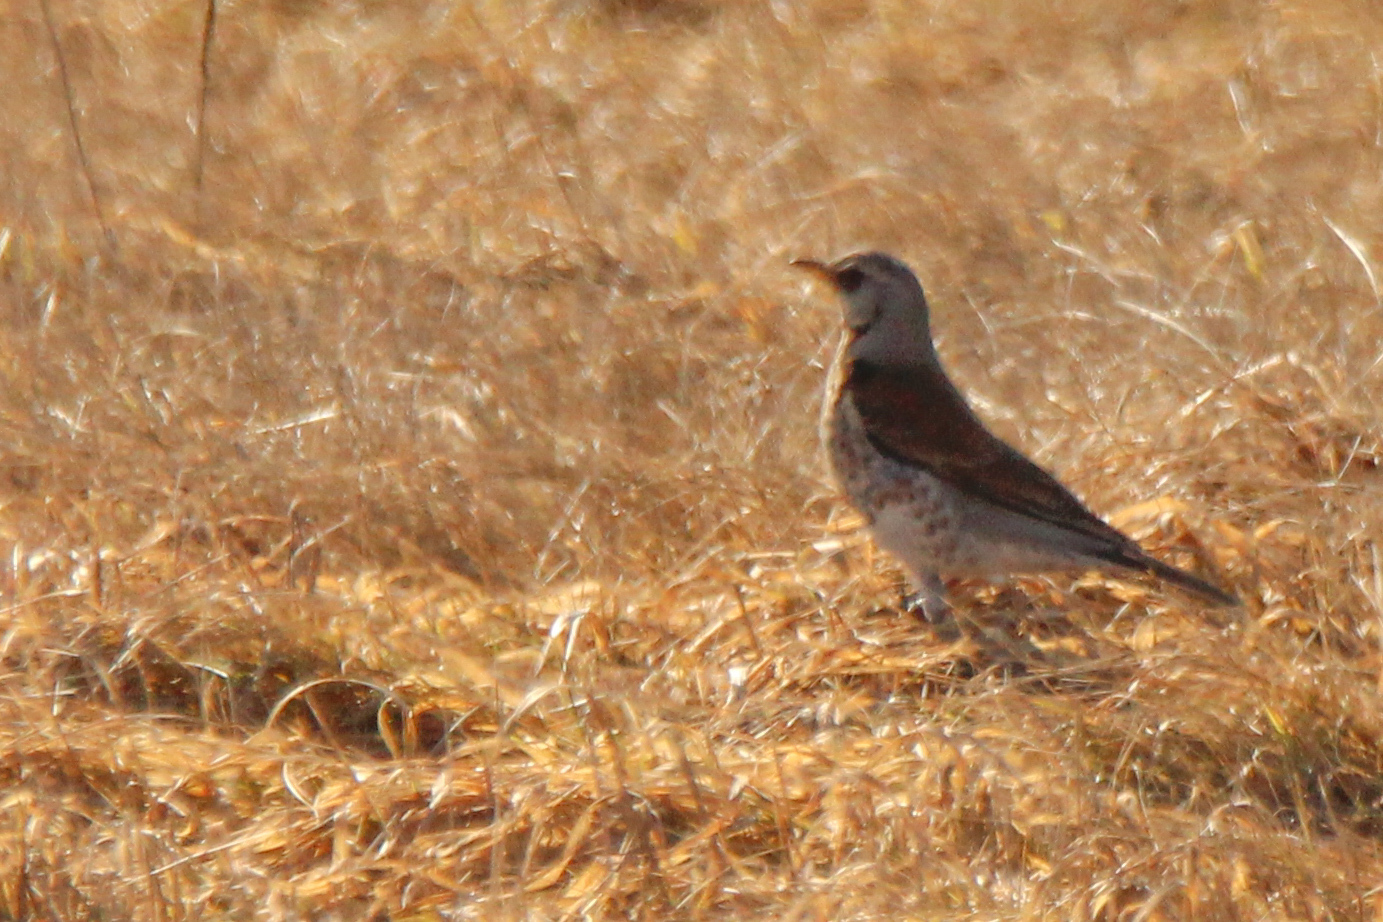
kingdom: Animalia
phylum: Chordata
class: Aves
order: Passeriformes
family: Turdidae
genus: Turdus
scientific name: Turdus pilaris
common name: Fieldfare
